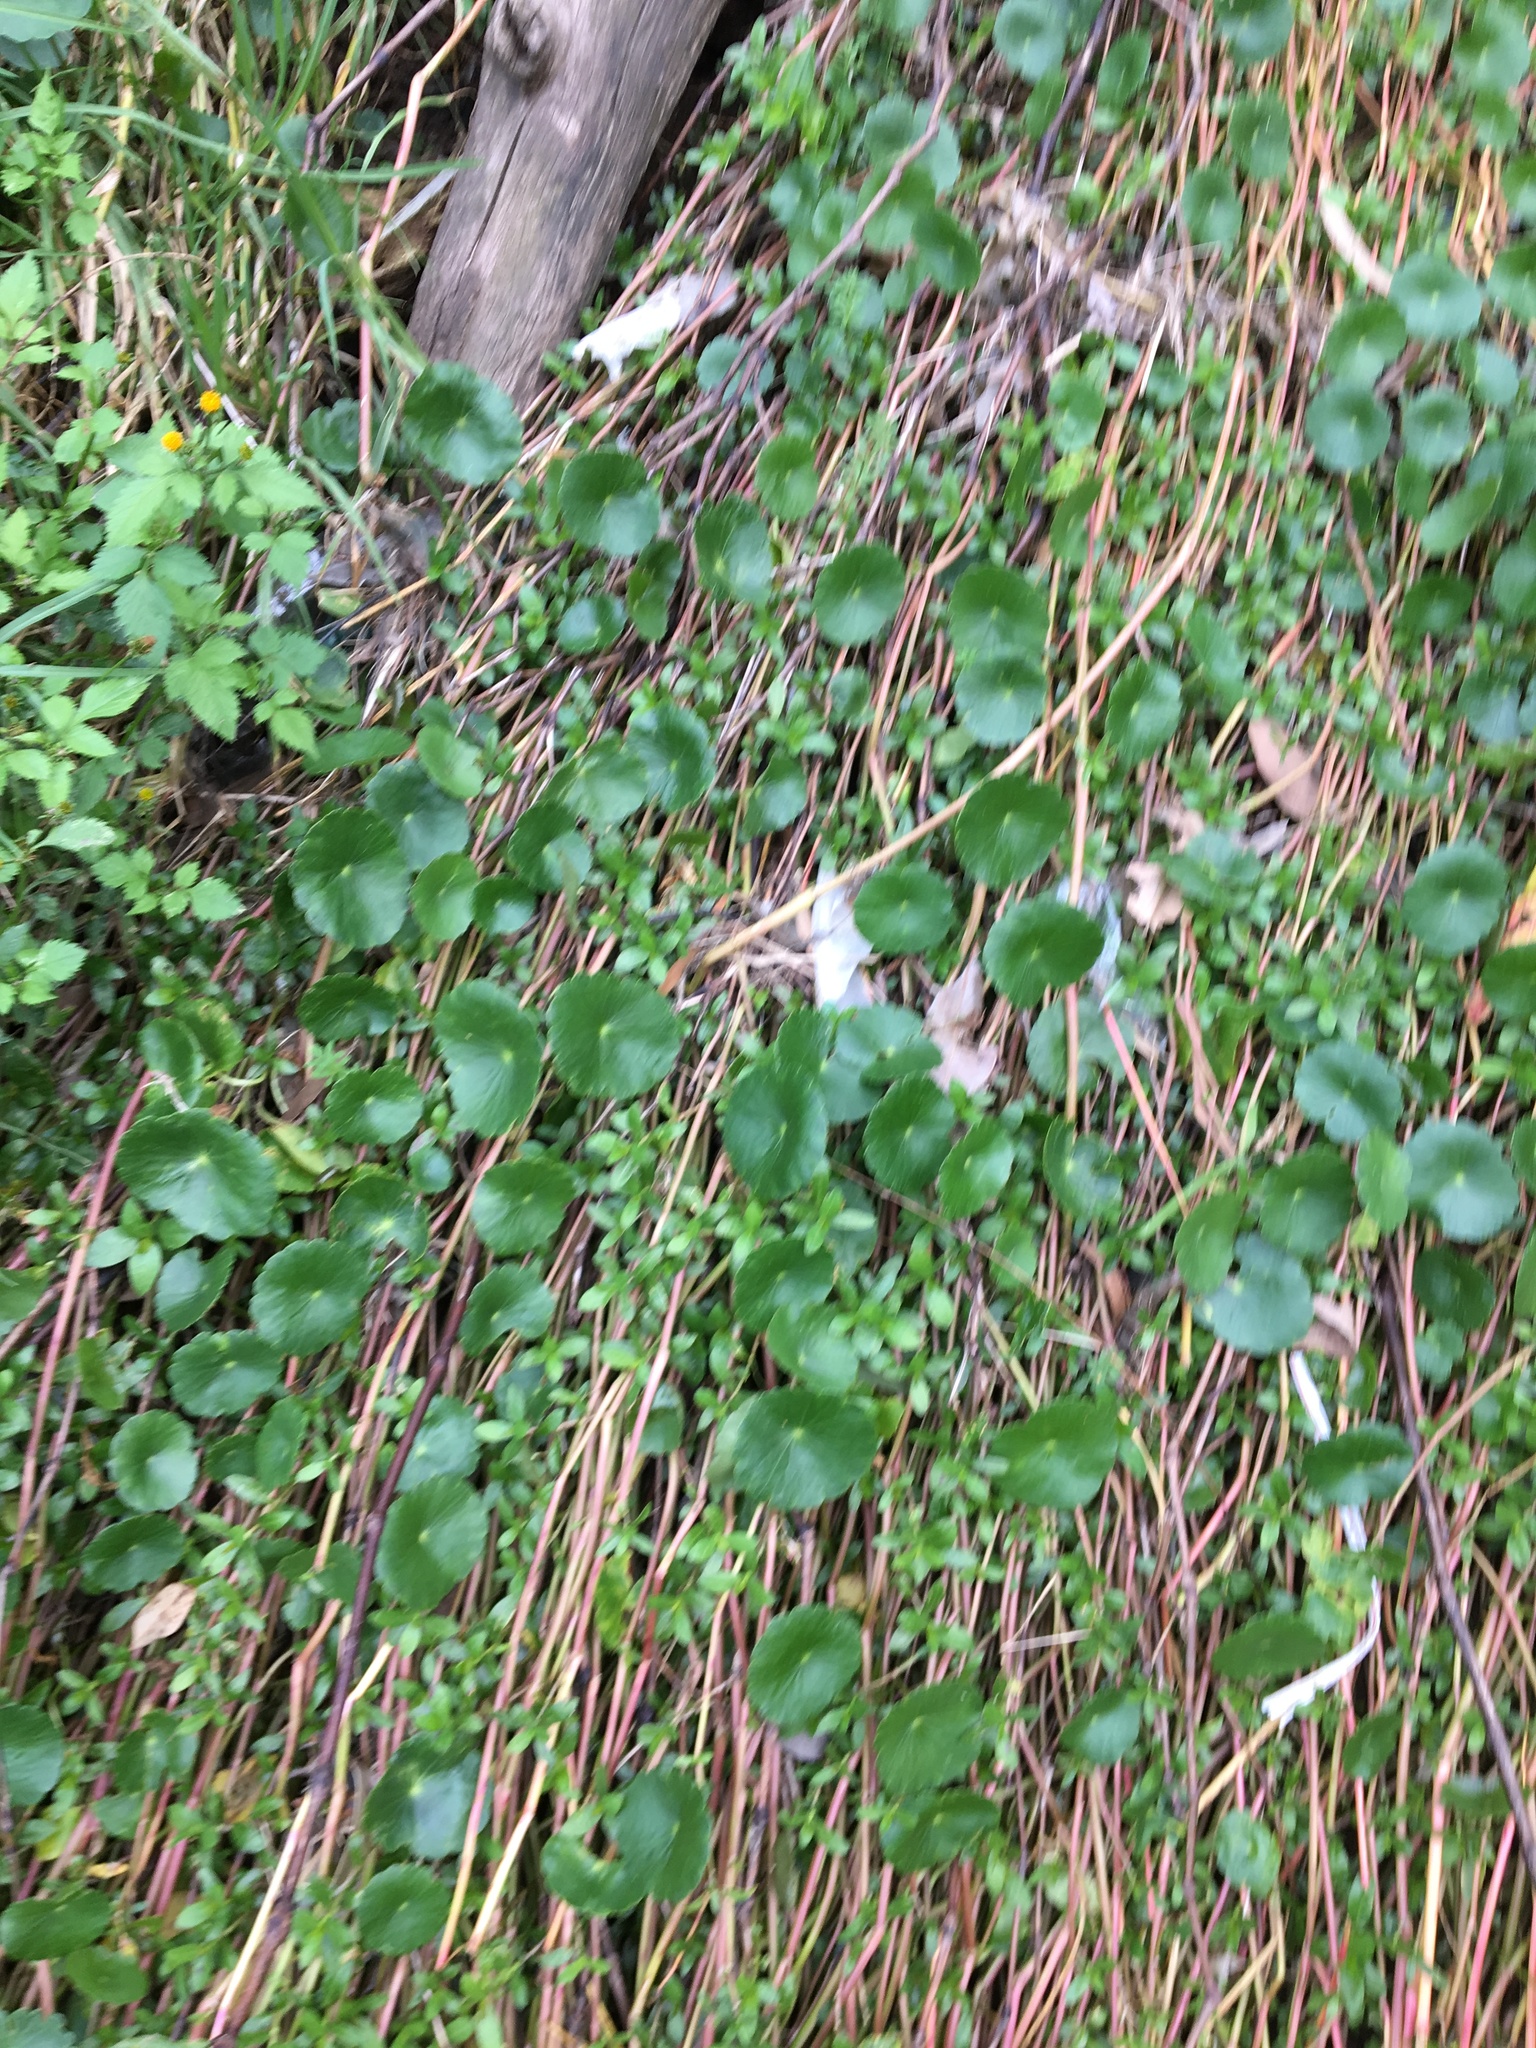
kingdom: Plantae
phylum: Tracheophyta
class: Magnoliopsida
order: Apiales
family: Araliaceae
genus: Hydrocotyle
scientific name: Hydrocotyle bonariensis
